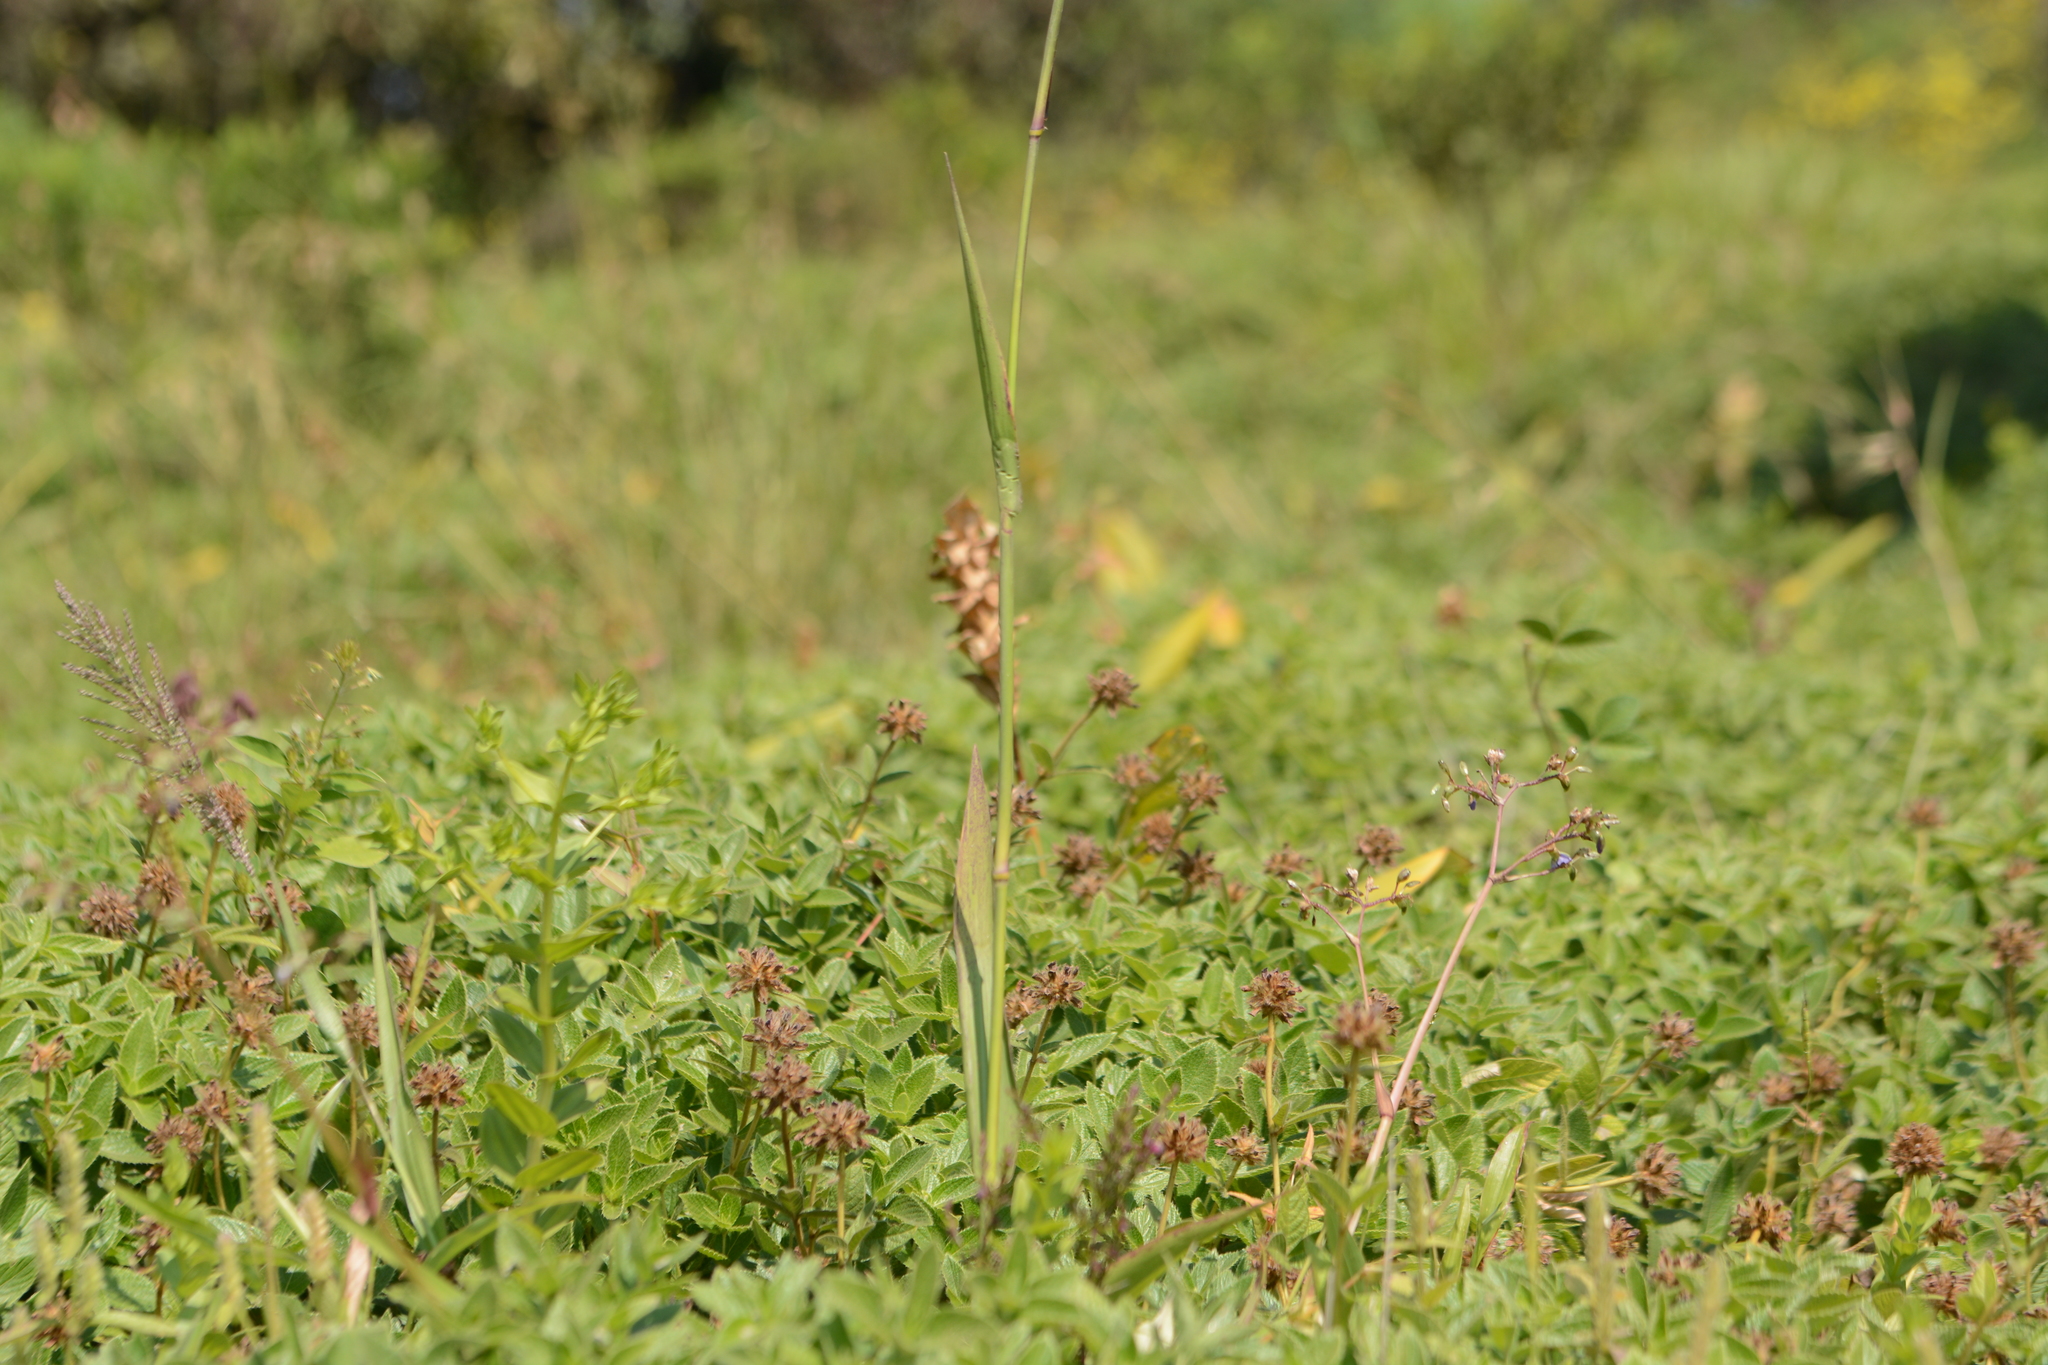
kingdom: Plantae
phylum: Tracheophyta
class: Liliopsida
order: Poales
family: Poaceae
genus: Arundinella
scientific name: Arundinella leptochloa
